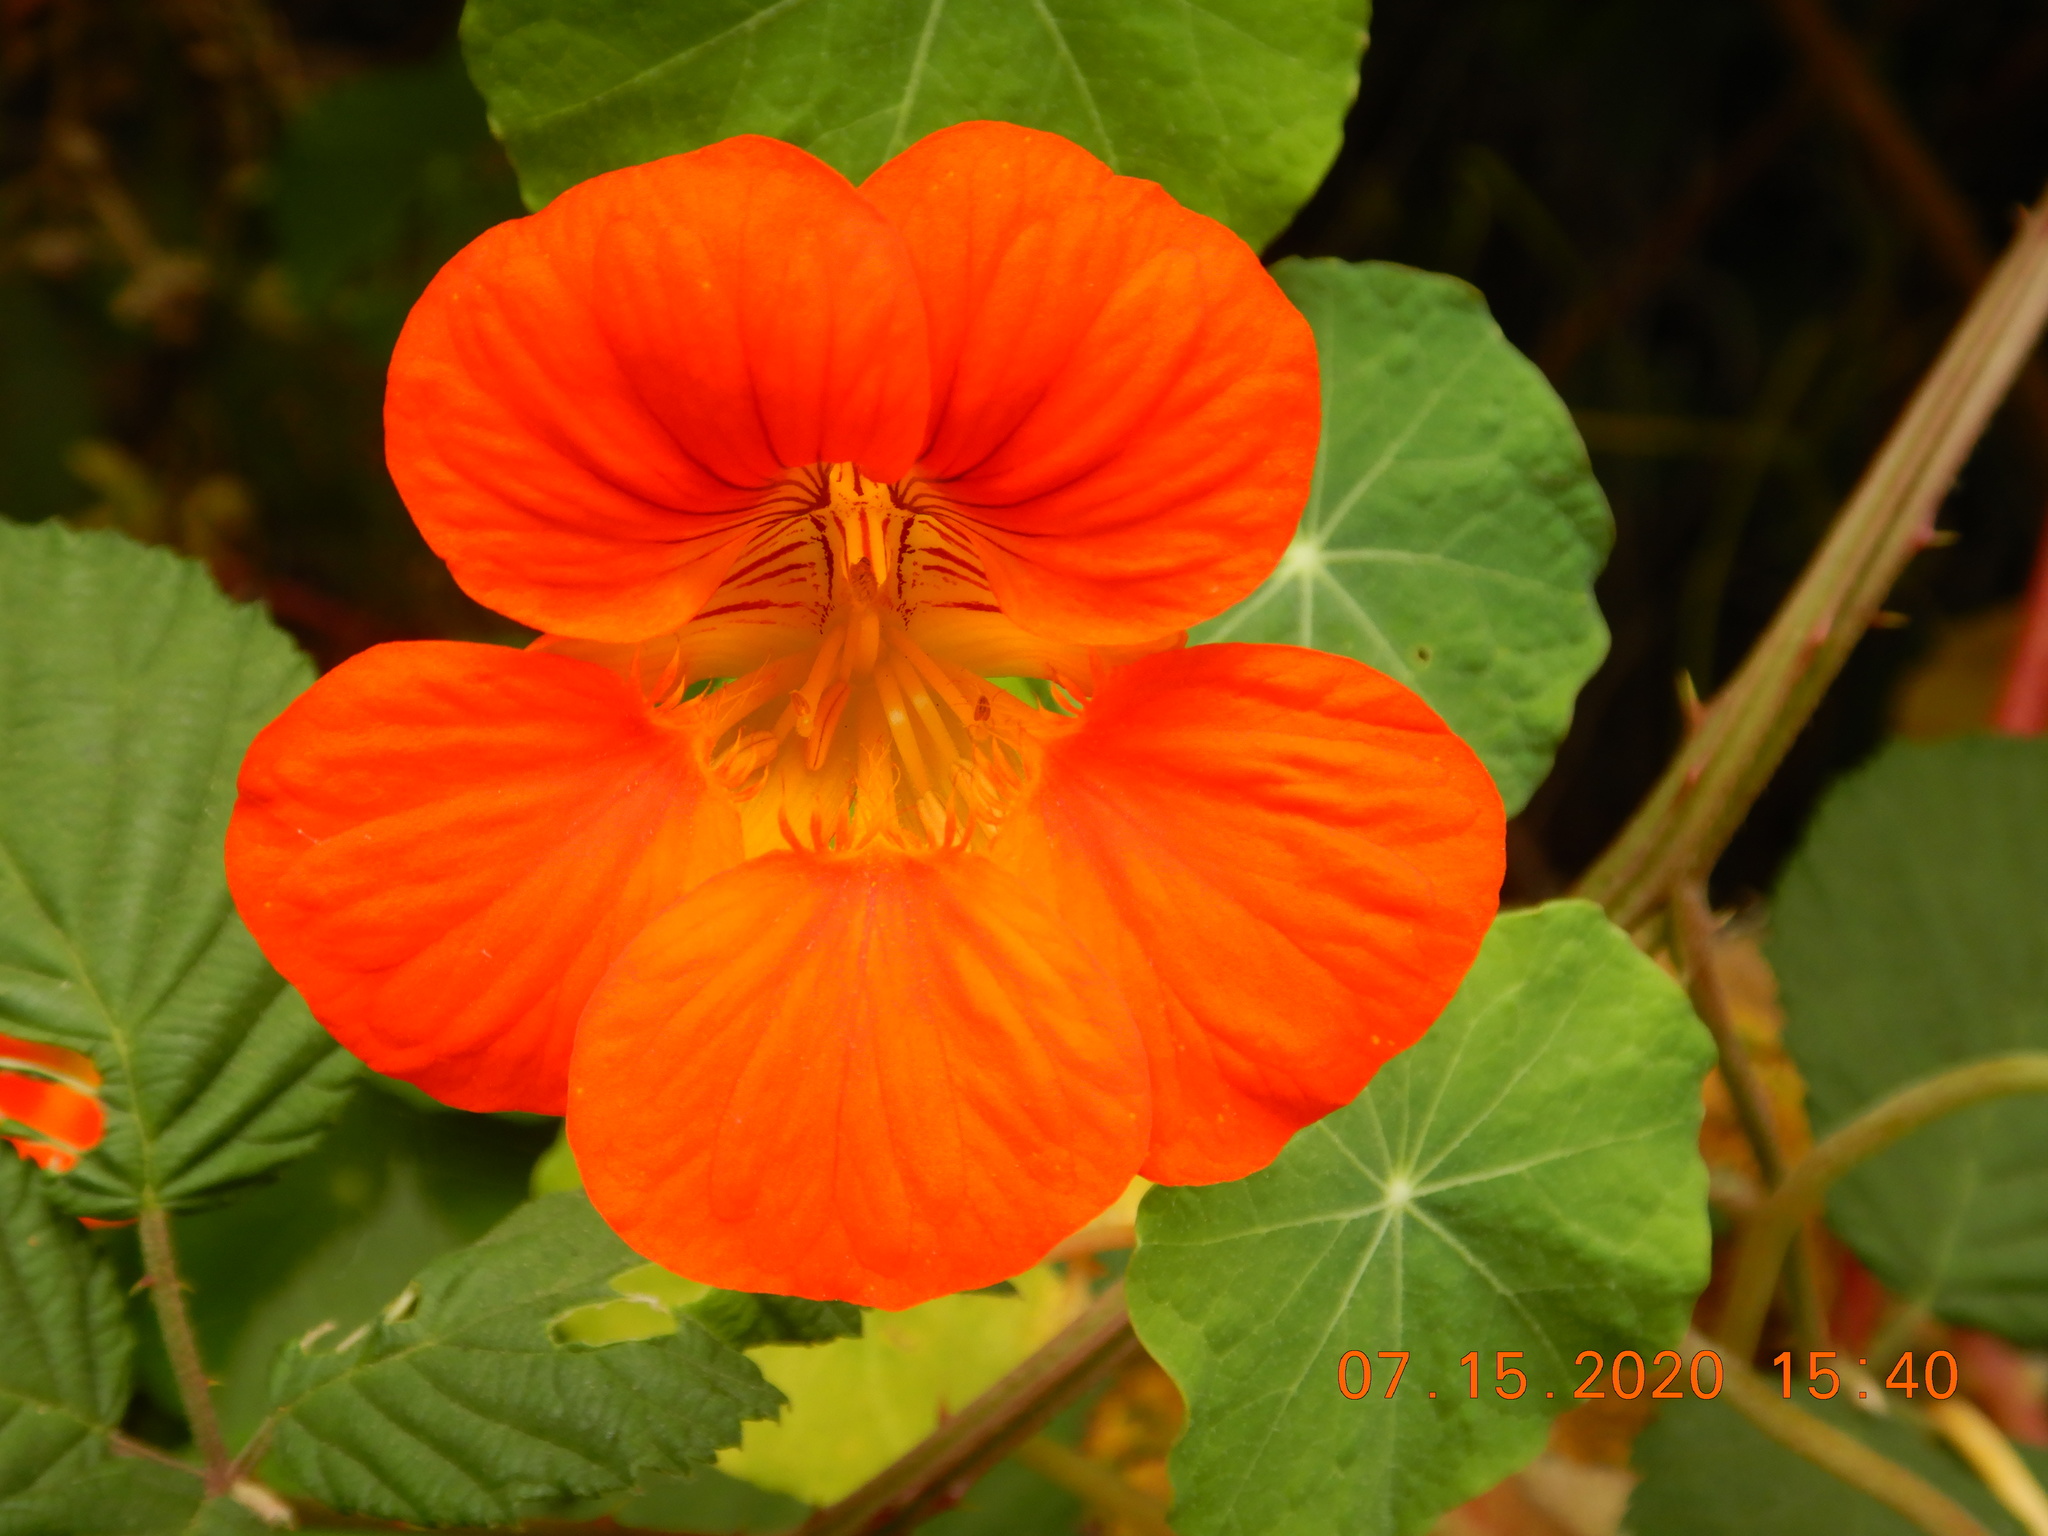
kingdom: Plantae
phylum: Tracheophyta
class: Magnoliopsida
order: Brassicales
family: Tropaeolaceae
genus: Tropaeolum
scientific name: Tropaeolum majus
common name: Nasturtium
